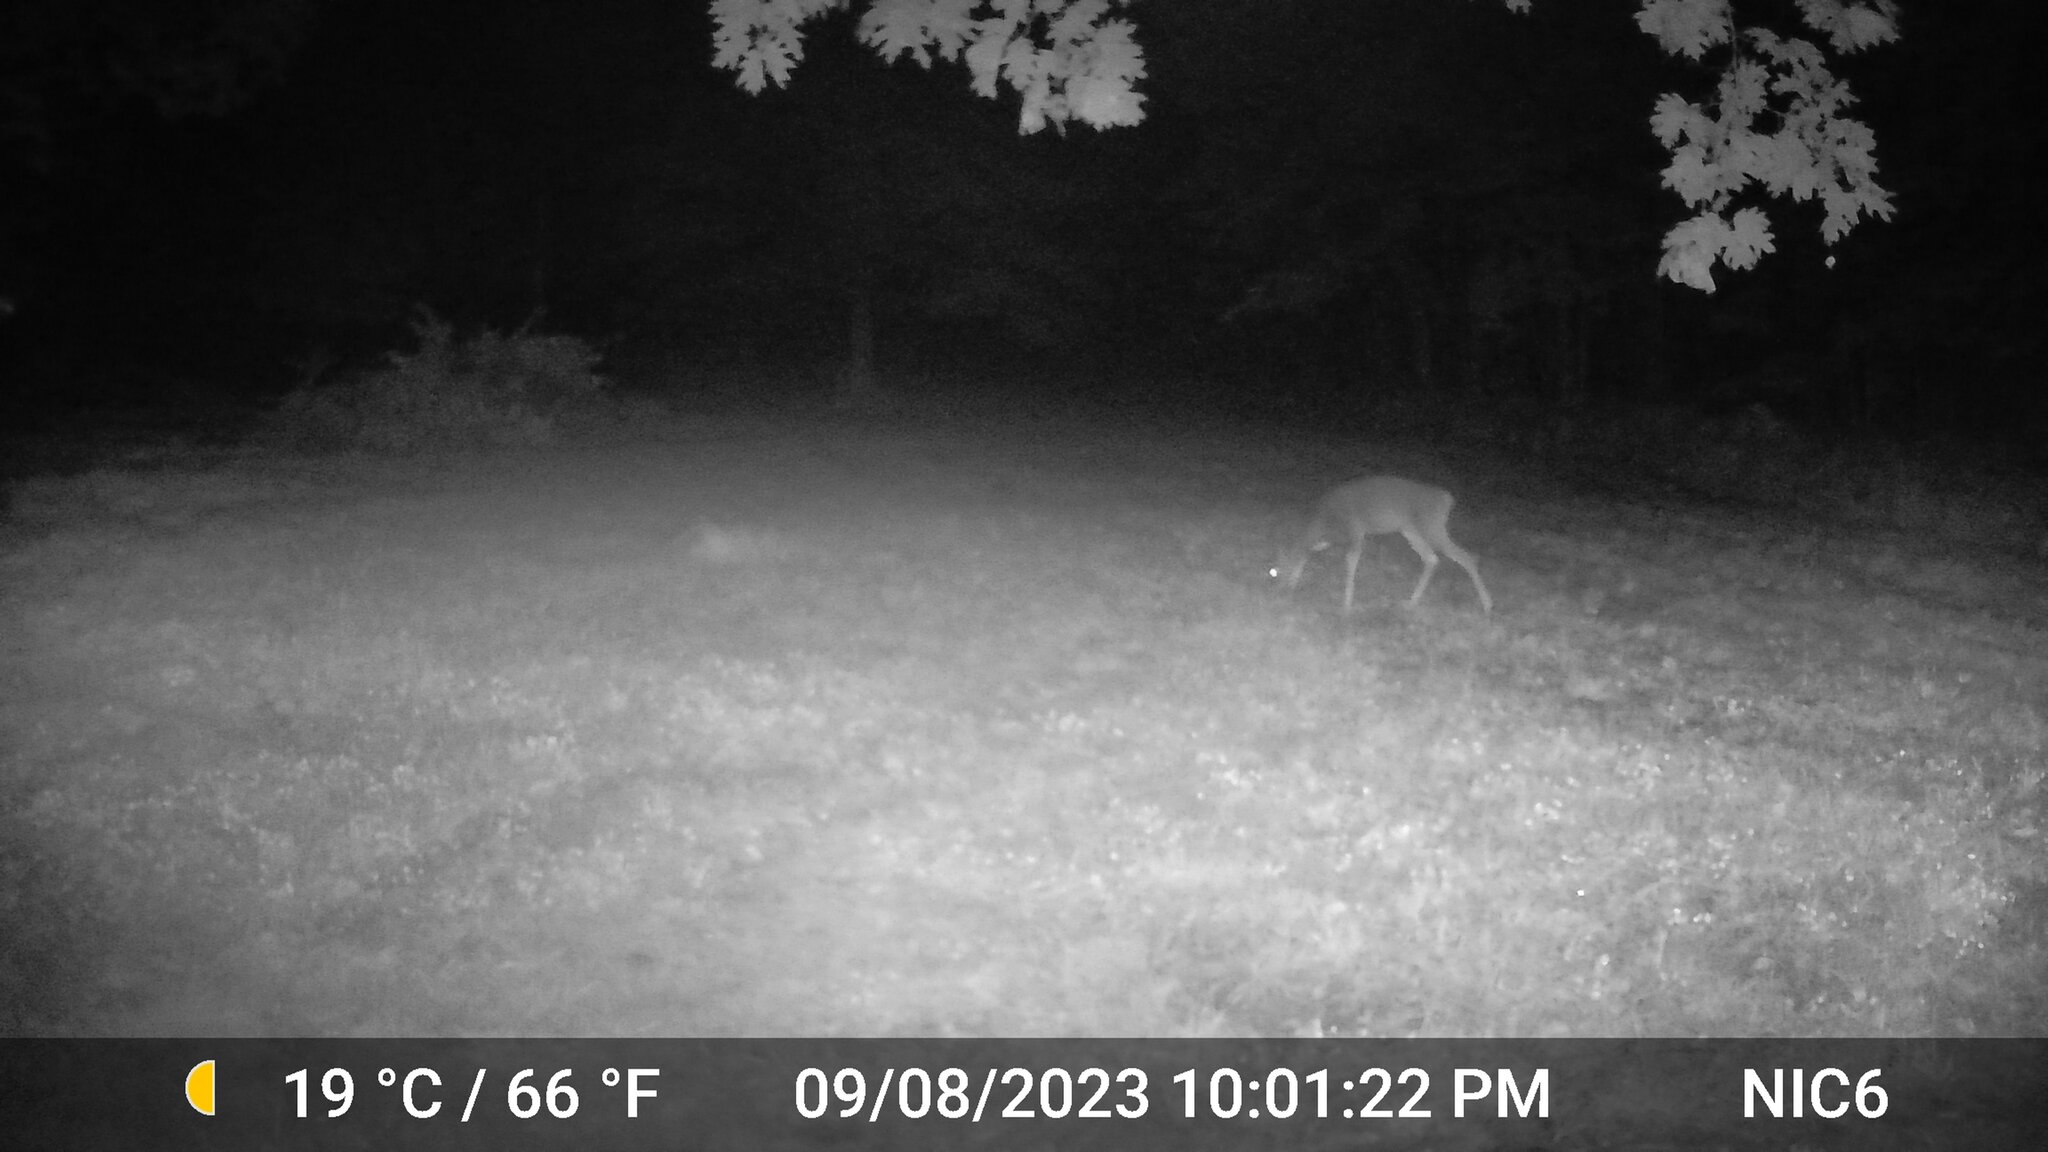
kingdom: Animalia
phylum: Chordata
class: Mammalia
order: Artiodactyla
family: Cervidae
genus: Odocoileus
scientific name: Odocoileus virginianus
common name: White-tailed deer
